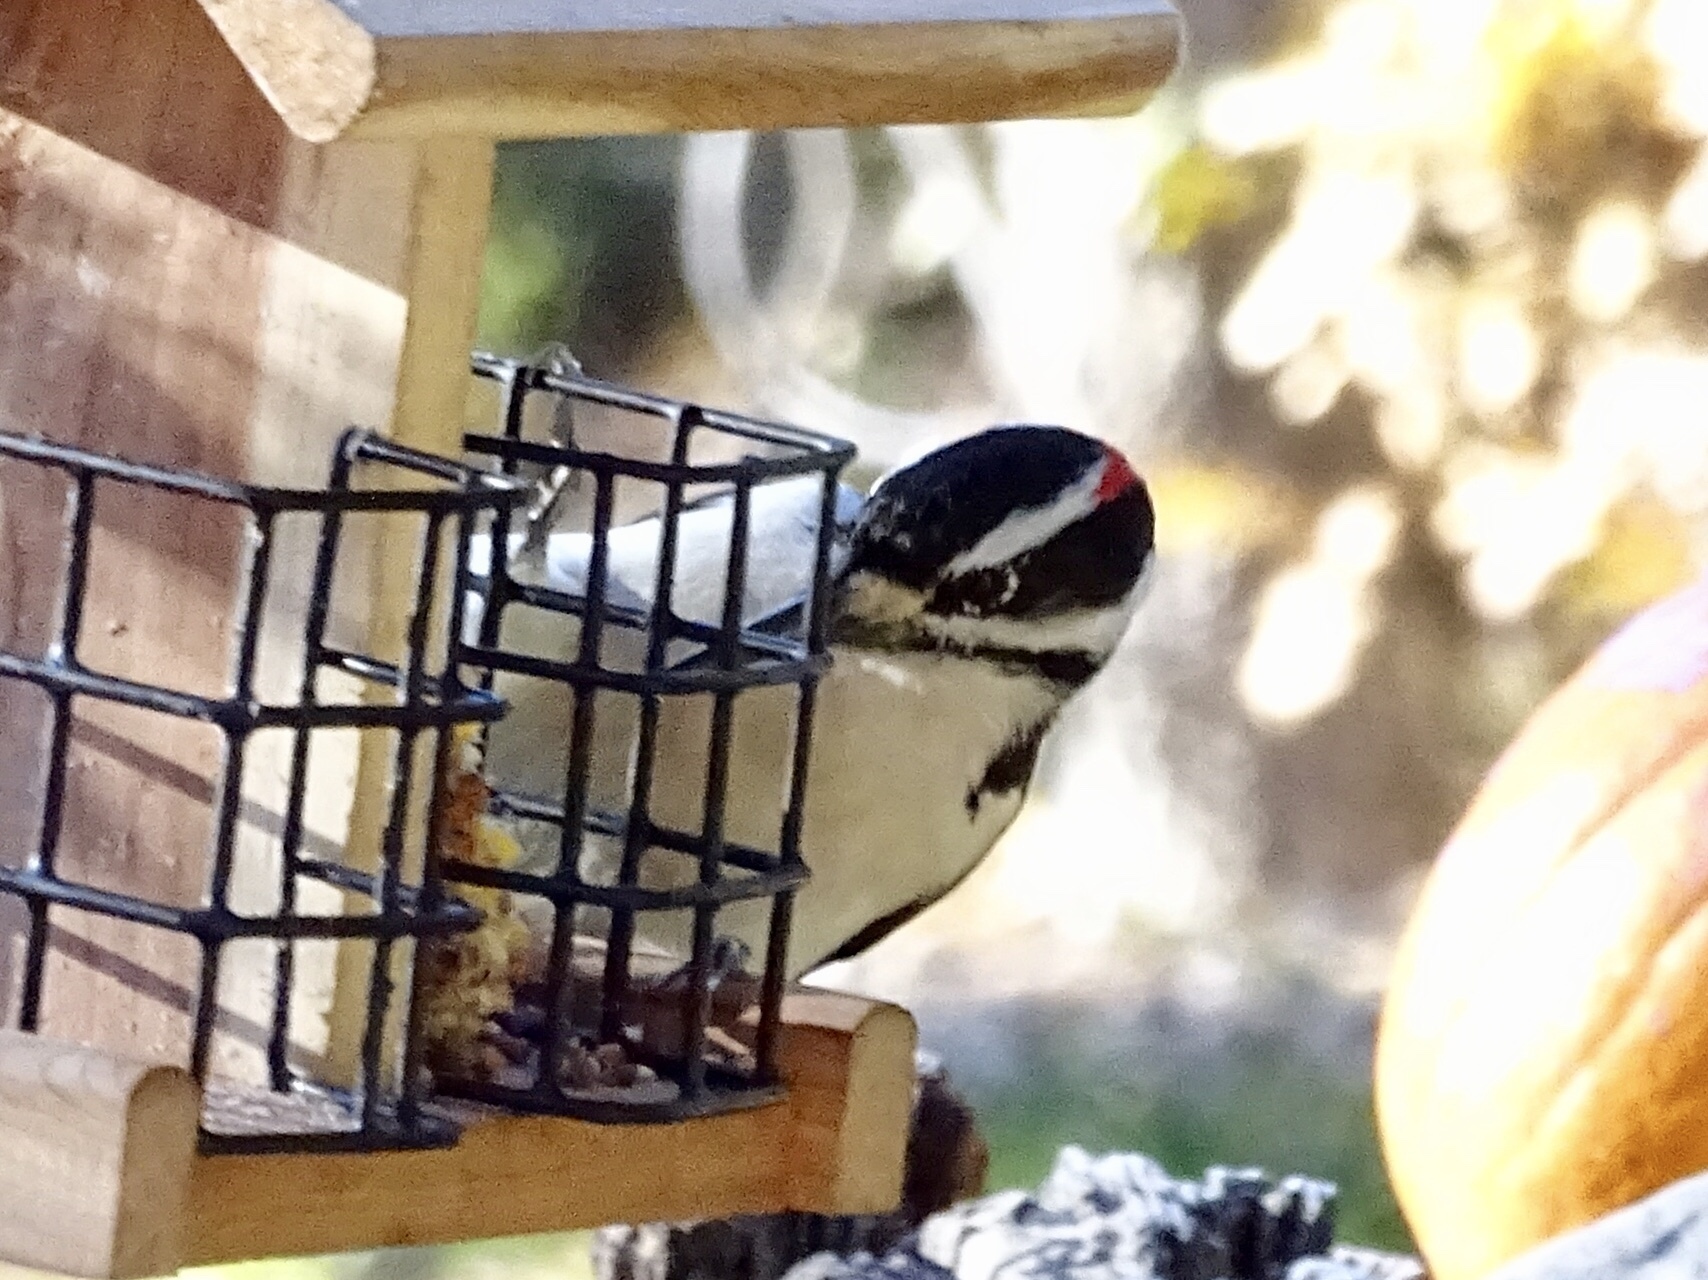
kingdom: Animalia
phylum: Chordata
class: Aves
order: Piciformes
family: Picidae
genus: Leuconotopicus
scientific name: Leuconotopicus villosus
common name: Hairy woodpecker
